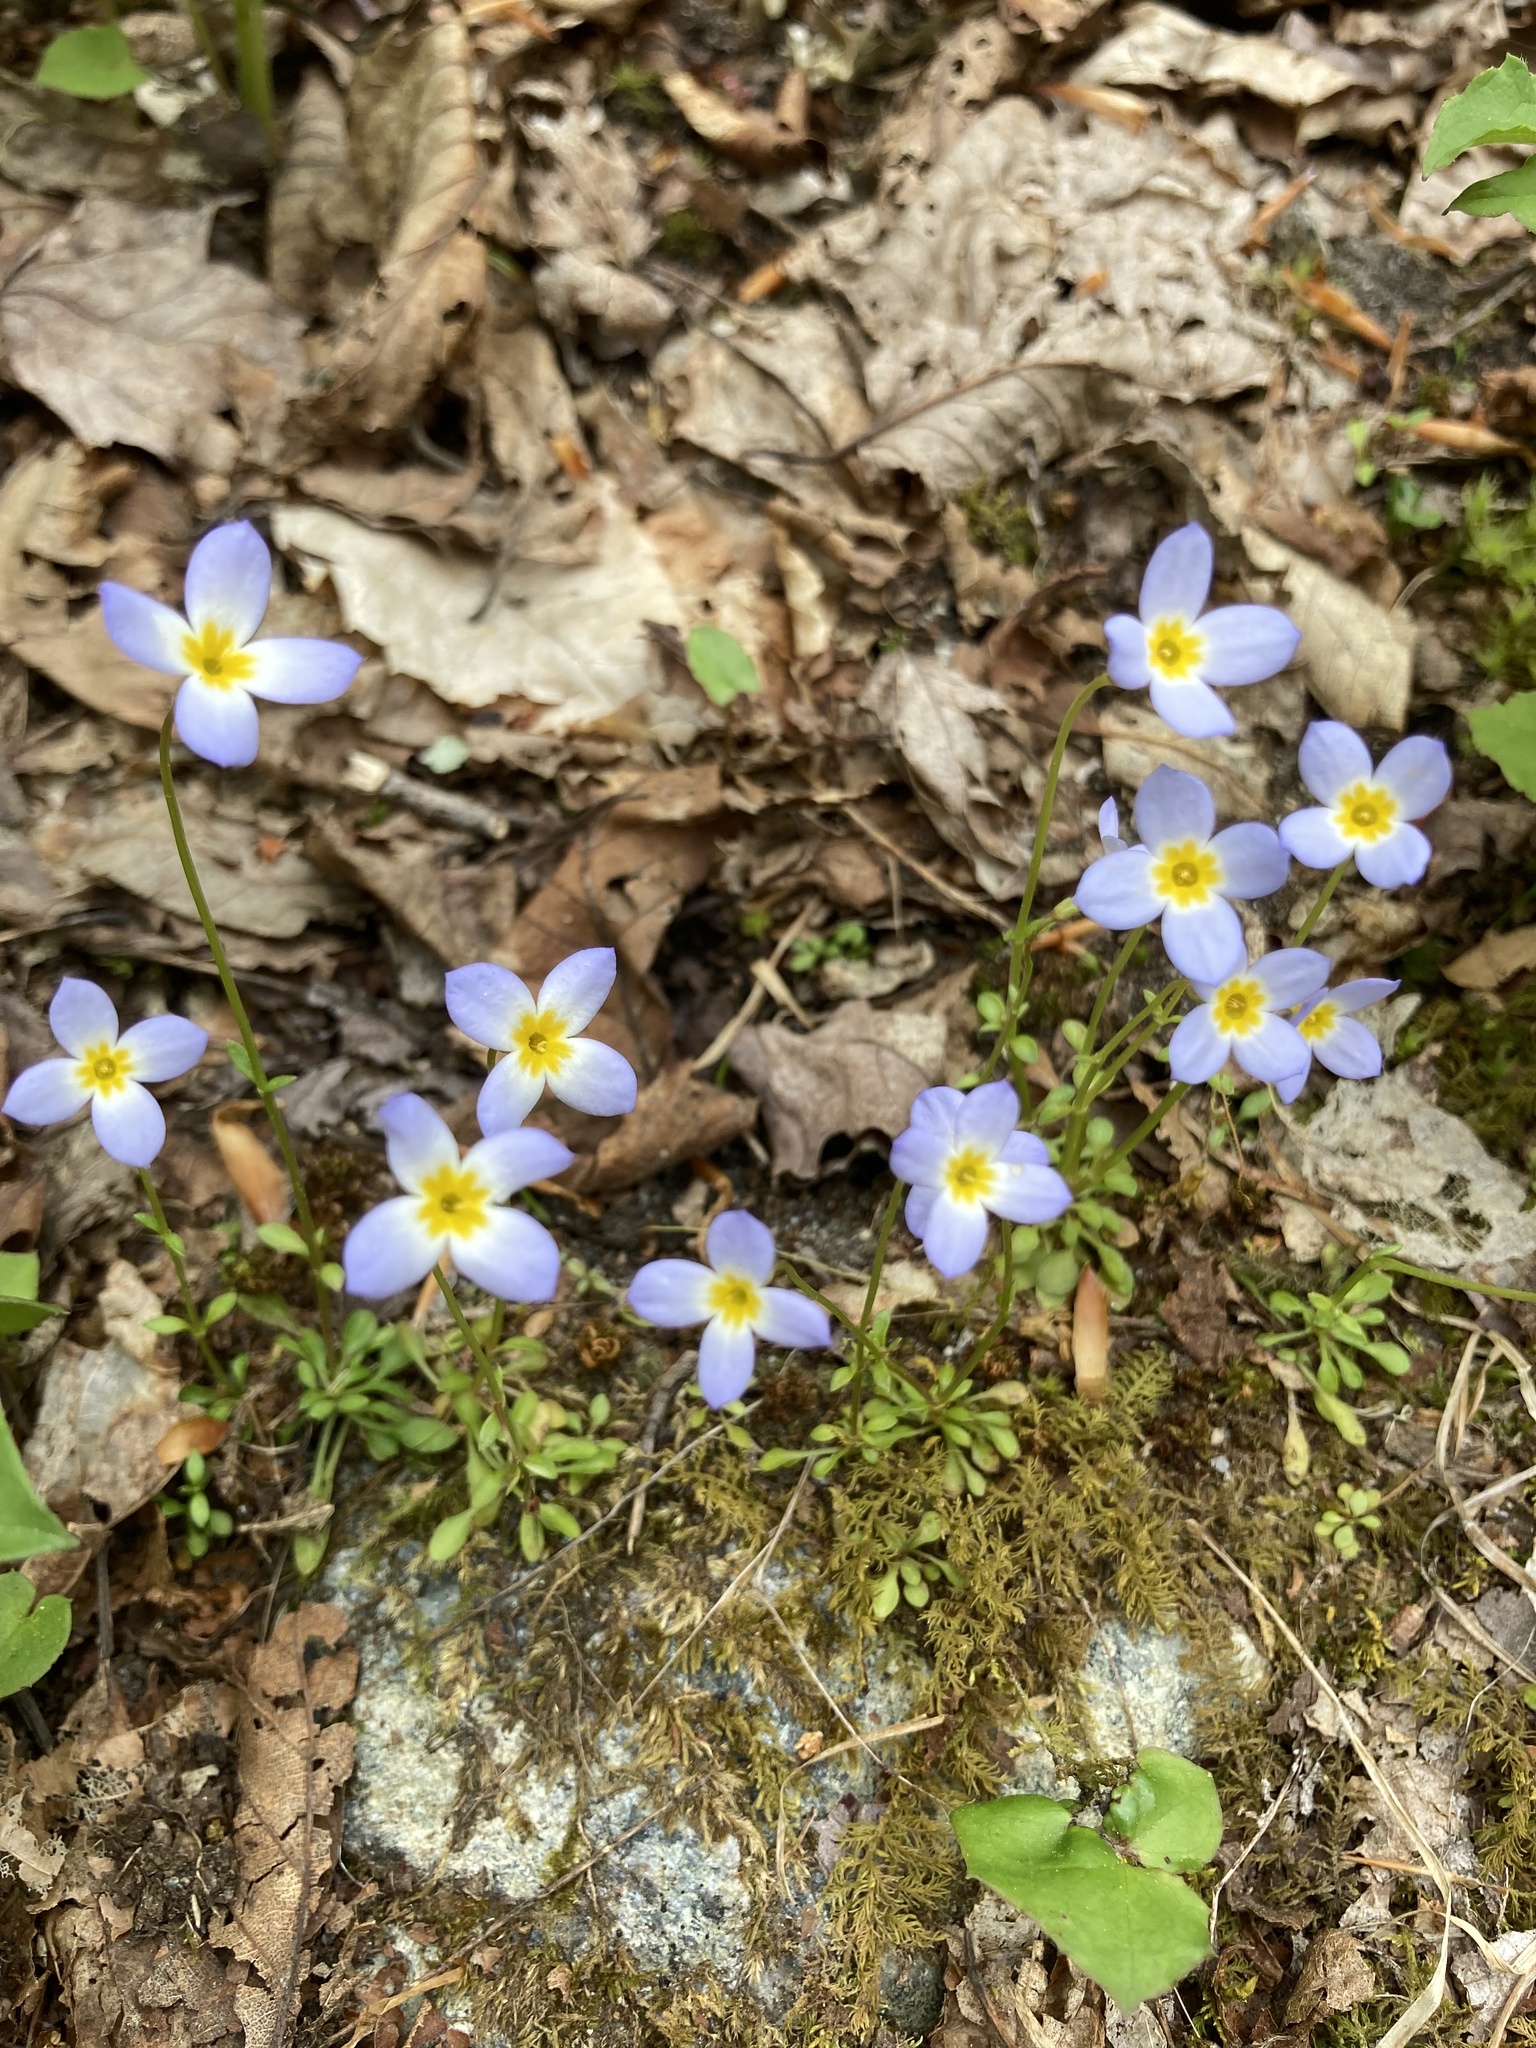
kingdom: Plantae
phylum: Tracheophyta
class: Magnoliopsida
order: Gentianales
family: Rubiaceae
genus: Houstonia
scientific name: Houstonia caerulea
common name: Bluets
